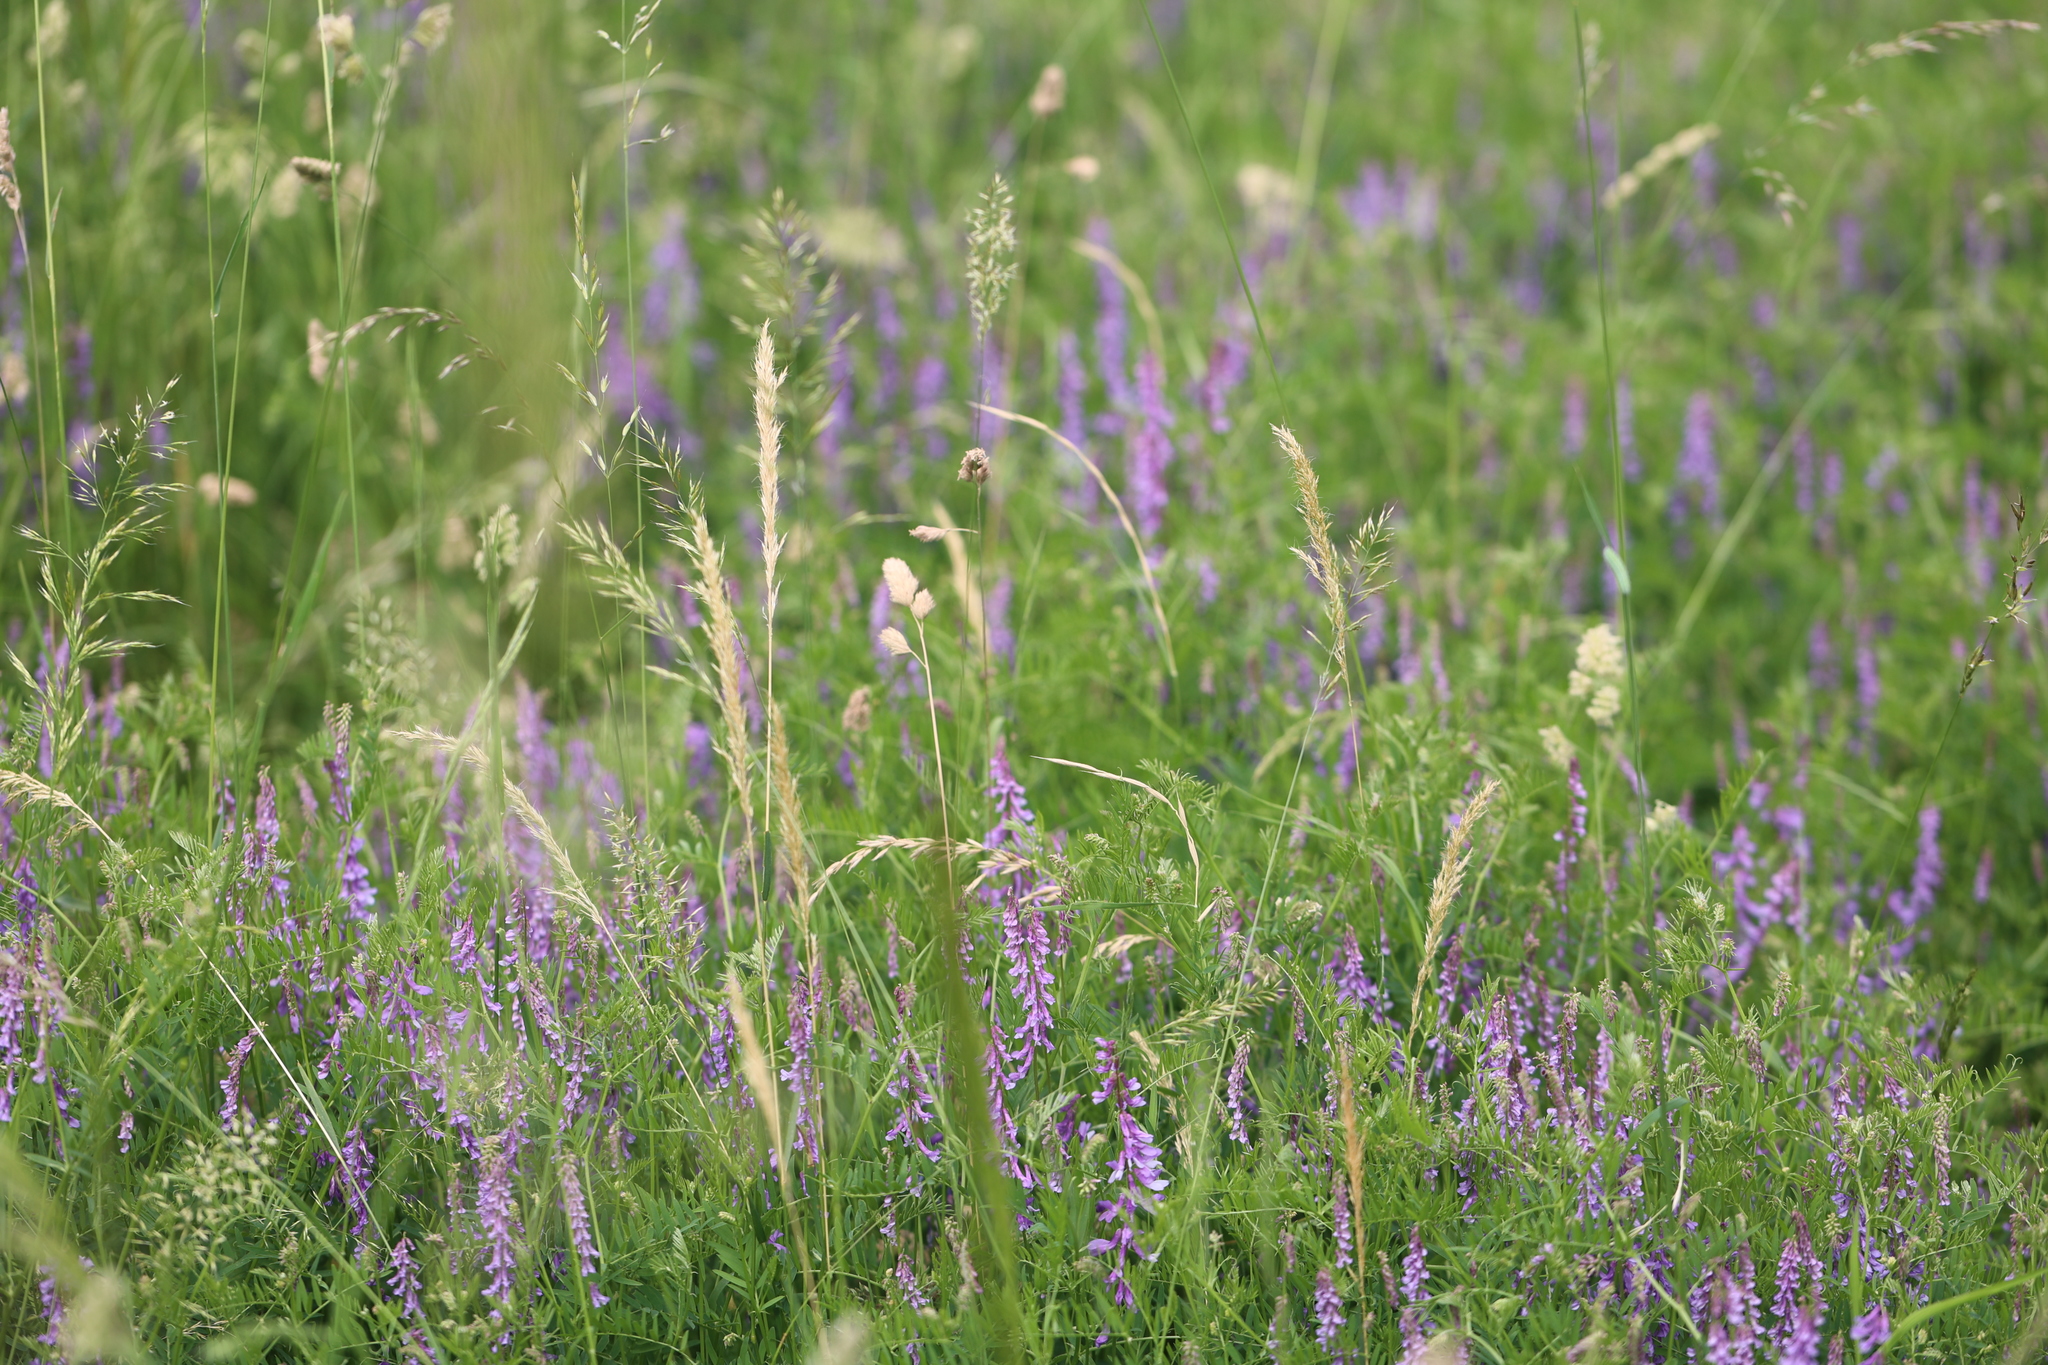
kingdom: Plantae
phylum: Tracheophyta
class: Magnoliopsida
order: Fabales
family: Fabaceae
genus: Vicia
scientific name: Vicia cracca
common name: Bird vetch
